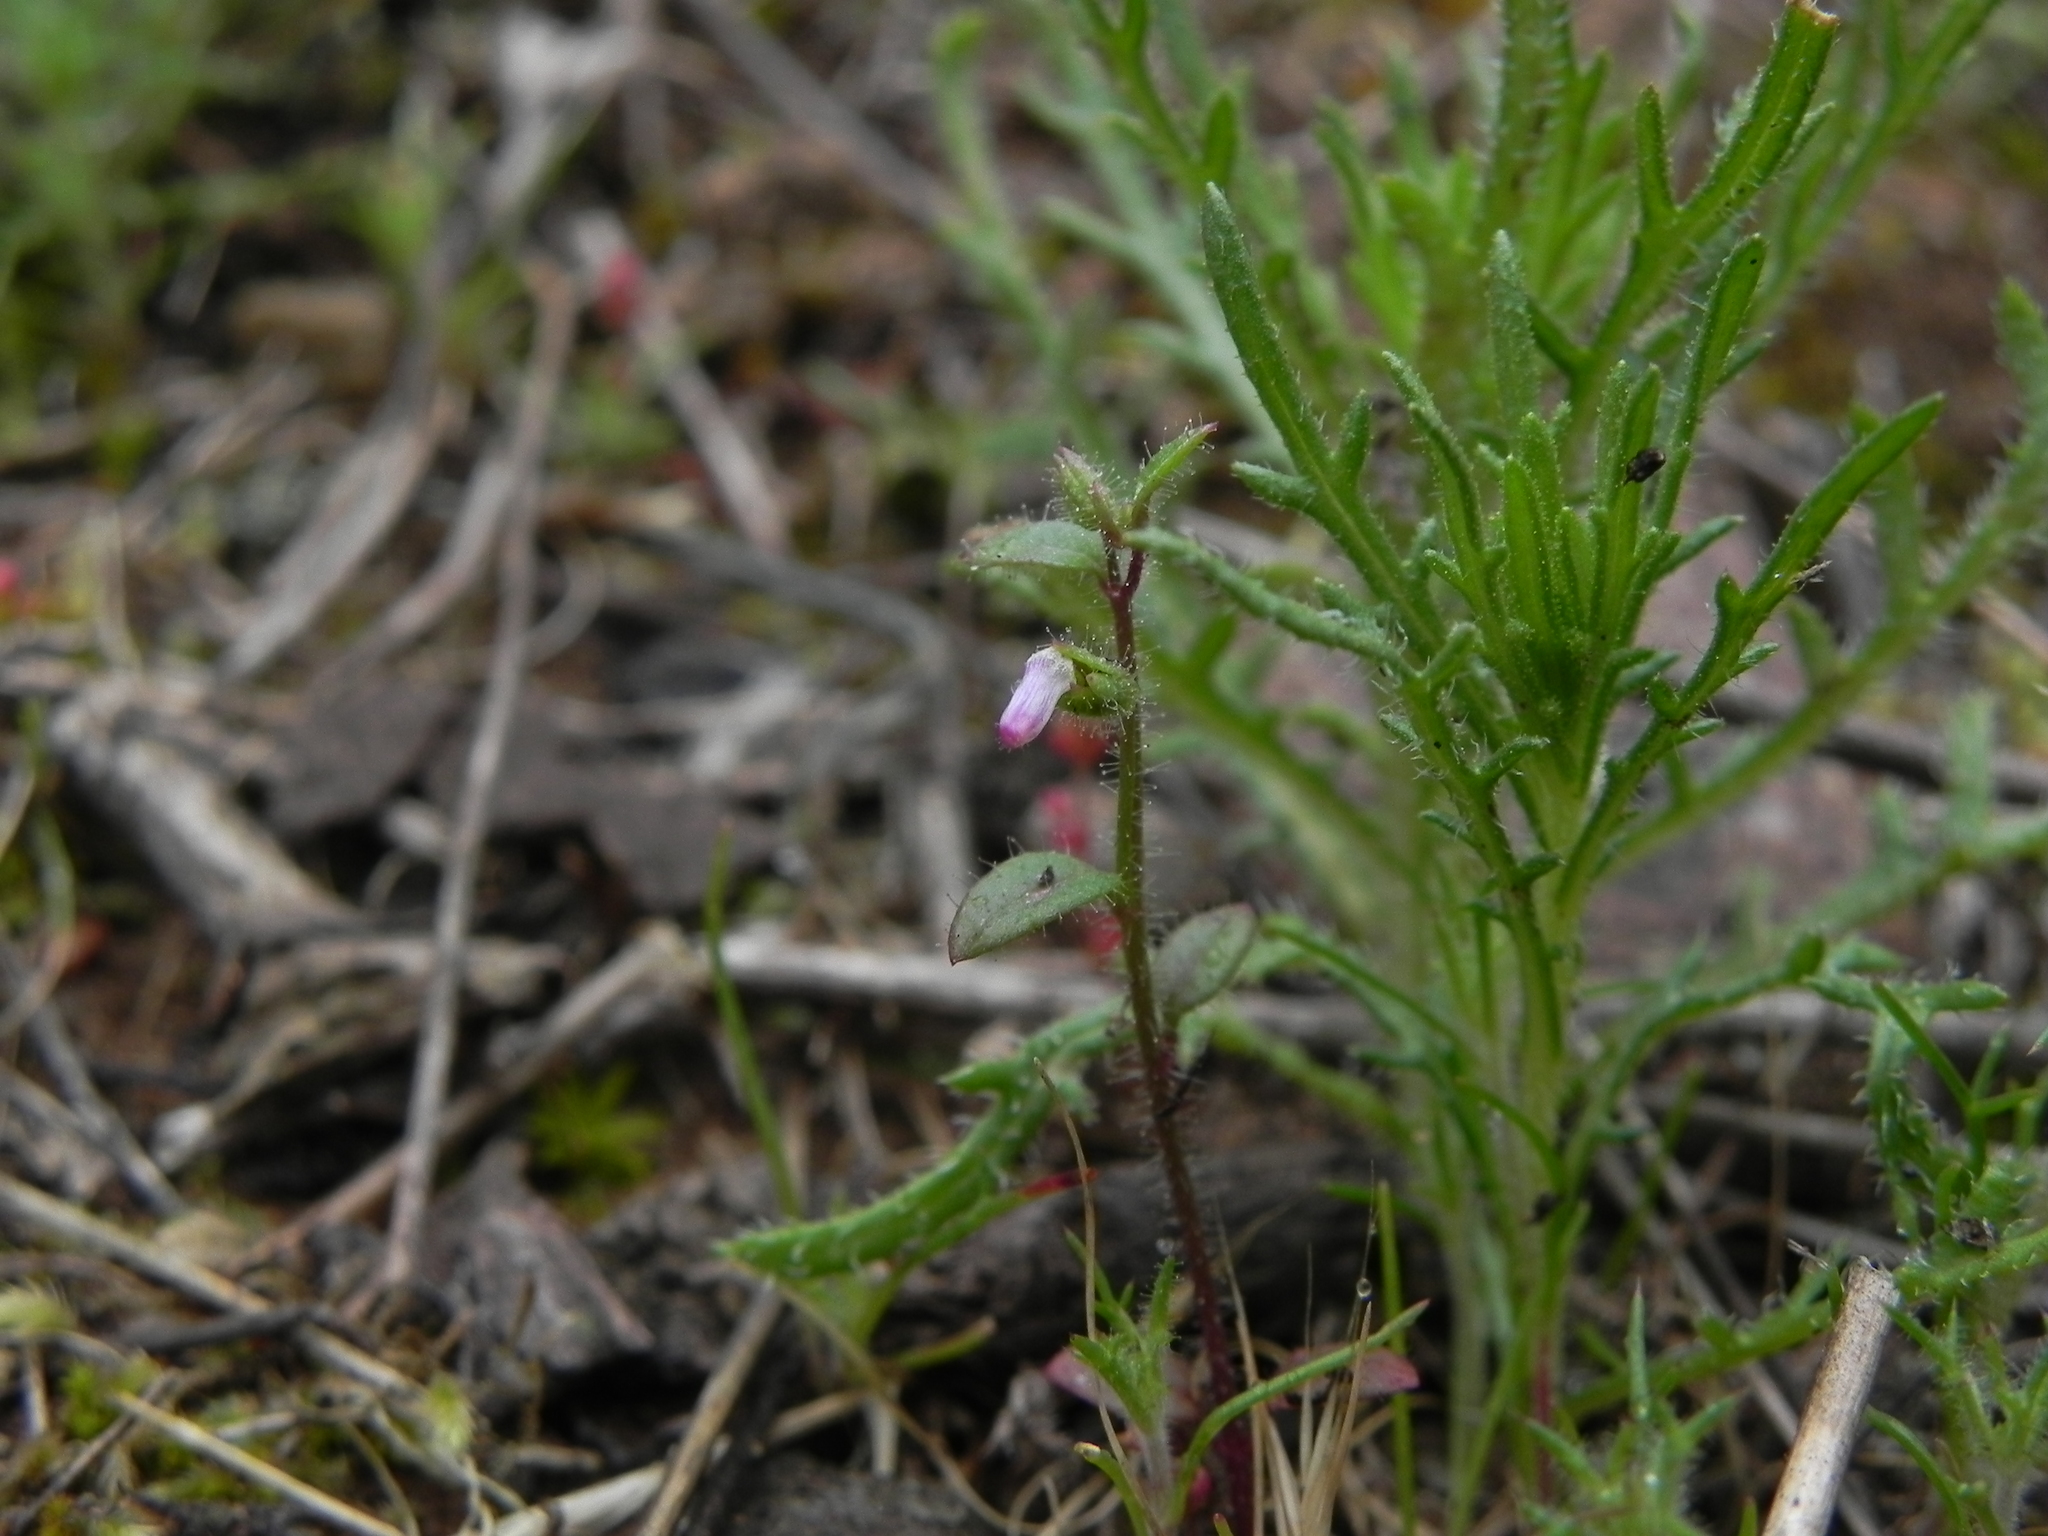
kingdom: Plantae
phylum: Tracheophyta
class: Magnoliopsida
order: Lamiales
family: Plantaginaceae
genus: Sairocarpus
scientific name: Sairocarpus nuttallianus
